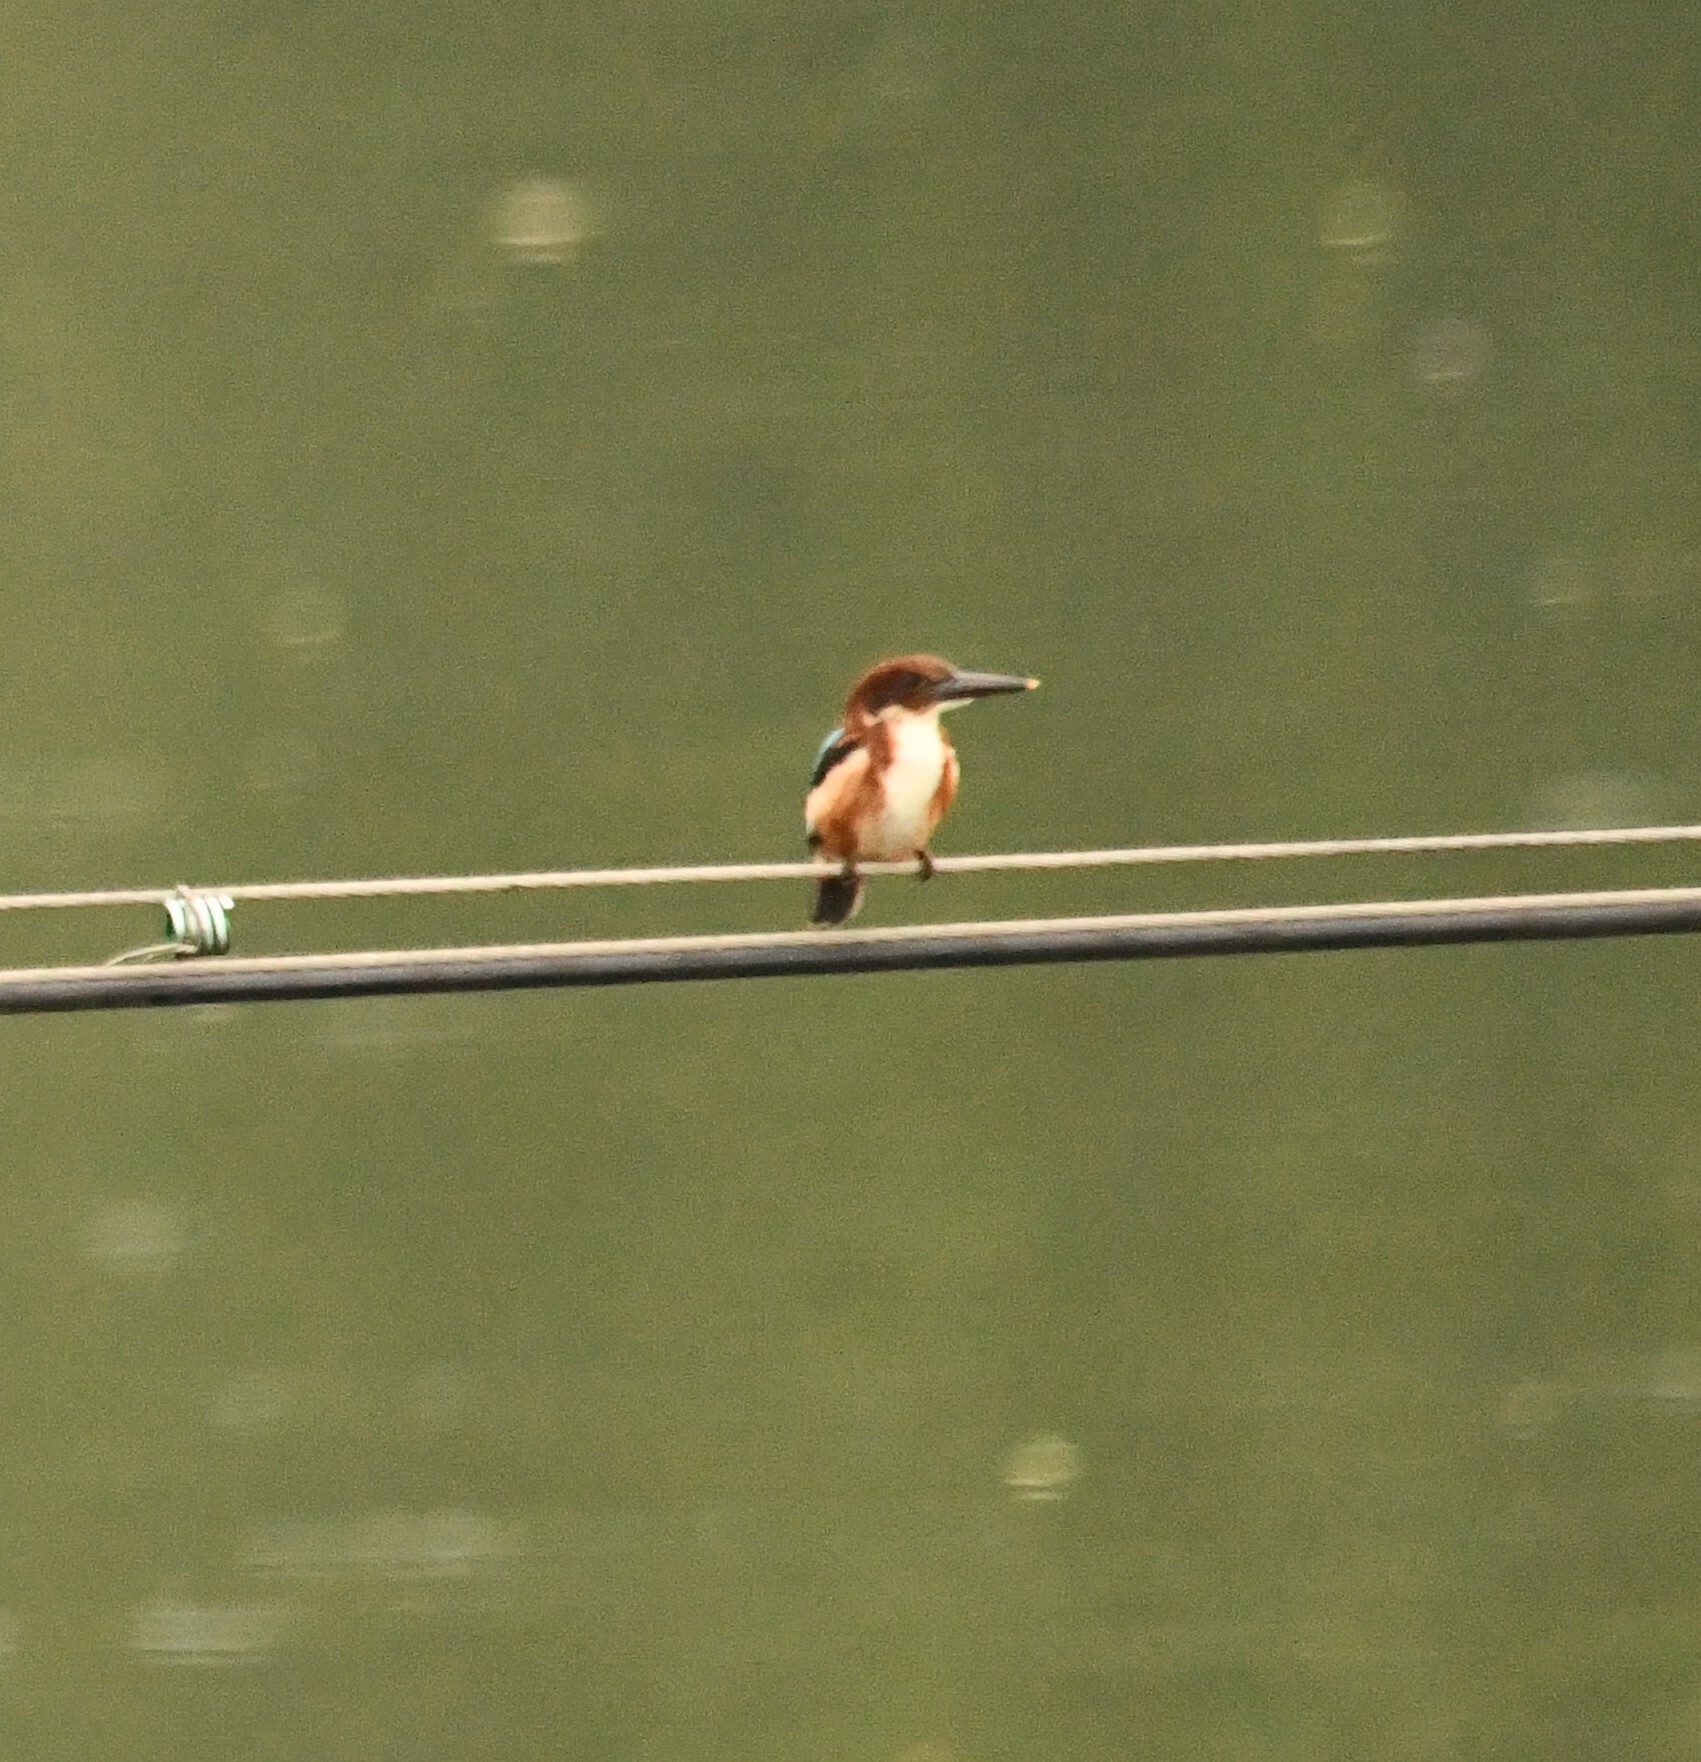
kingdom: Animalia
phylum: Chordata
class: Aves
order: Coraciiformes
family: Alcedinidae
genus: Halcyon
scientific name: Halcyon smyrnensis
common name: White-throated kingfisher
